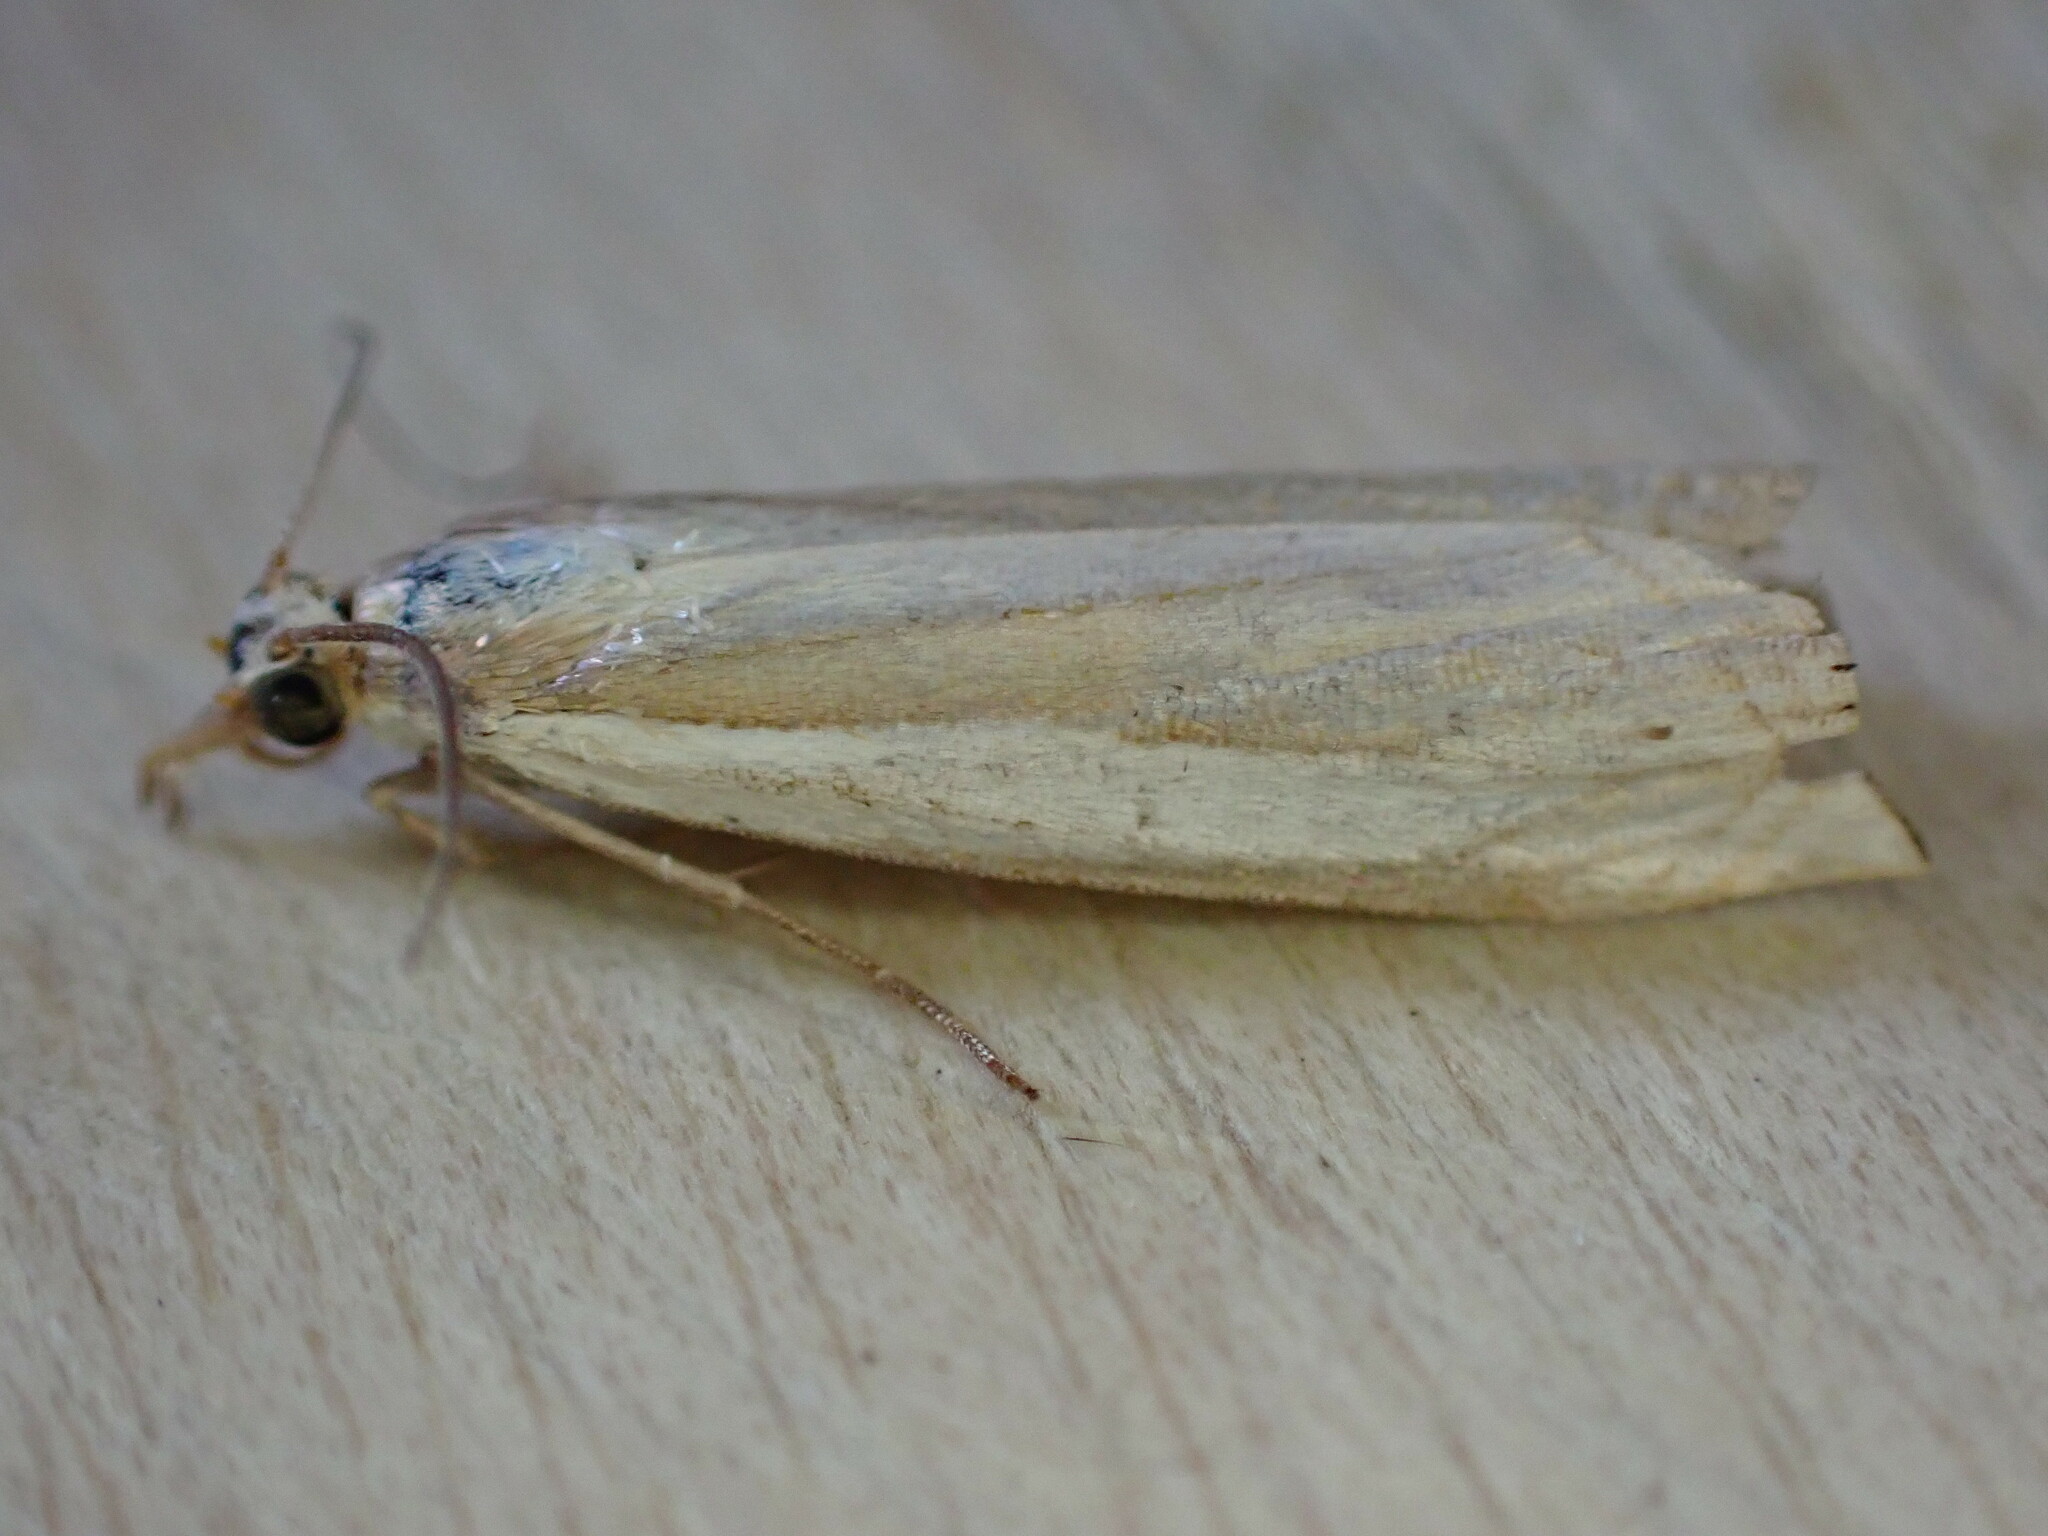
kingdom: Animalia
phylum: Arthropoda
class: Insecta
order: Lepidoptera
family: Crambidae
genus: Crambus
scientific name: Crambus pascuella
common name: Inlaid grass-veneer
